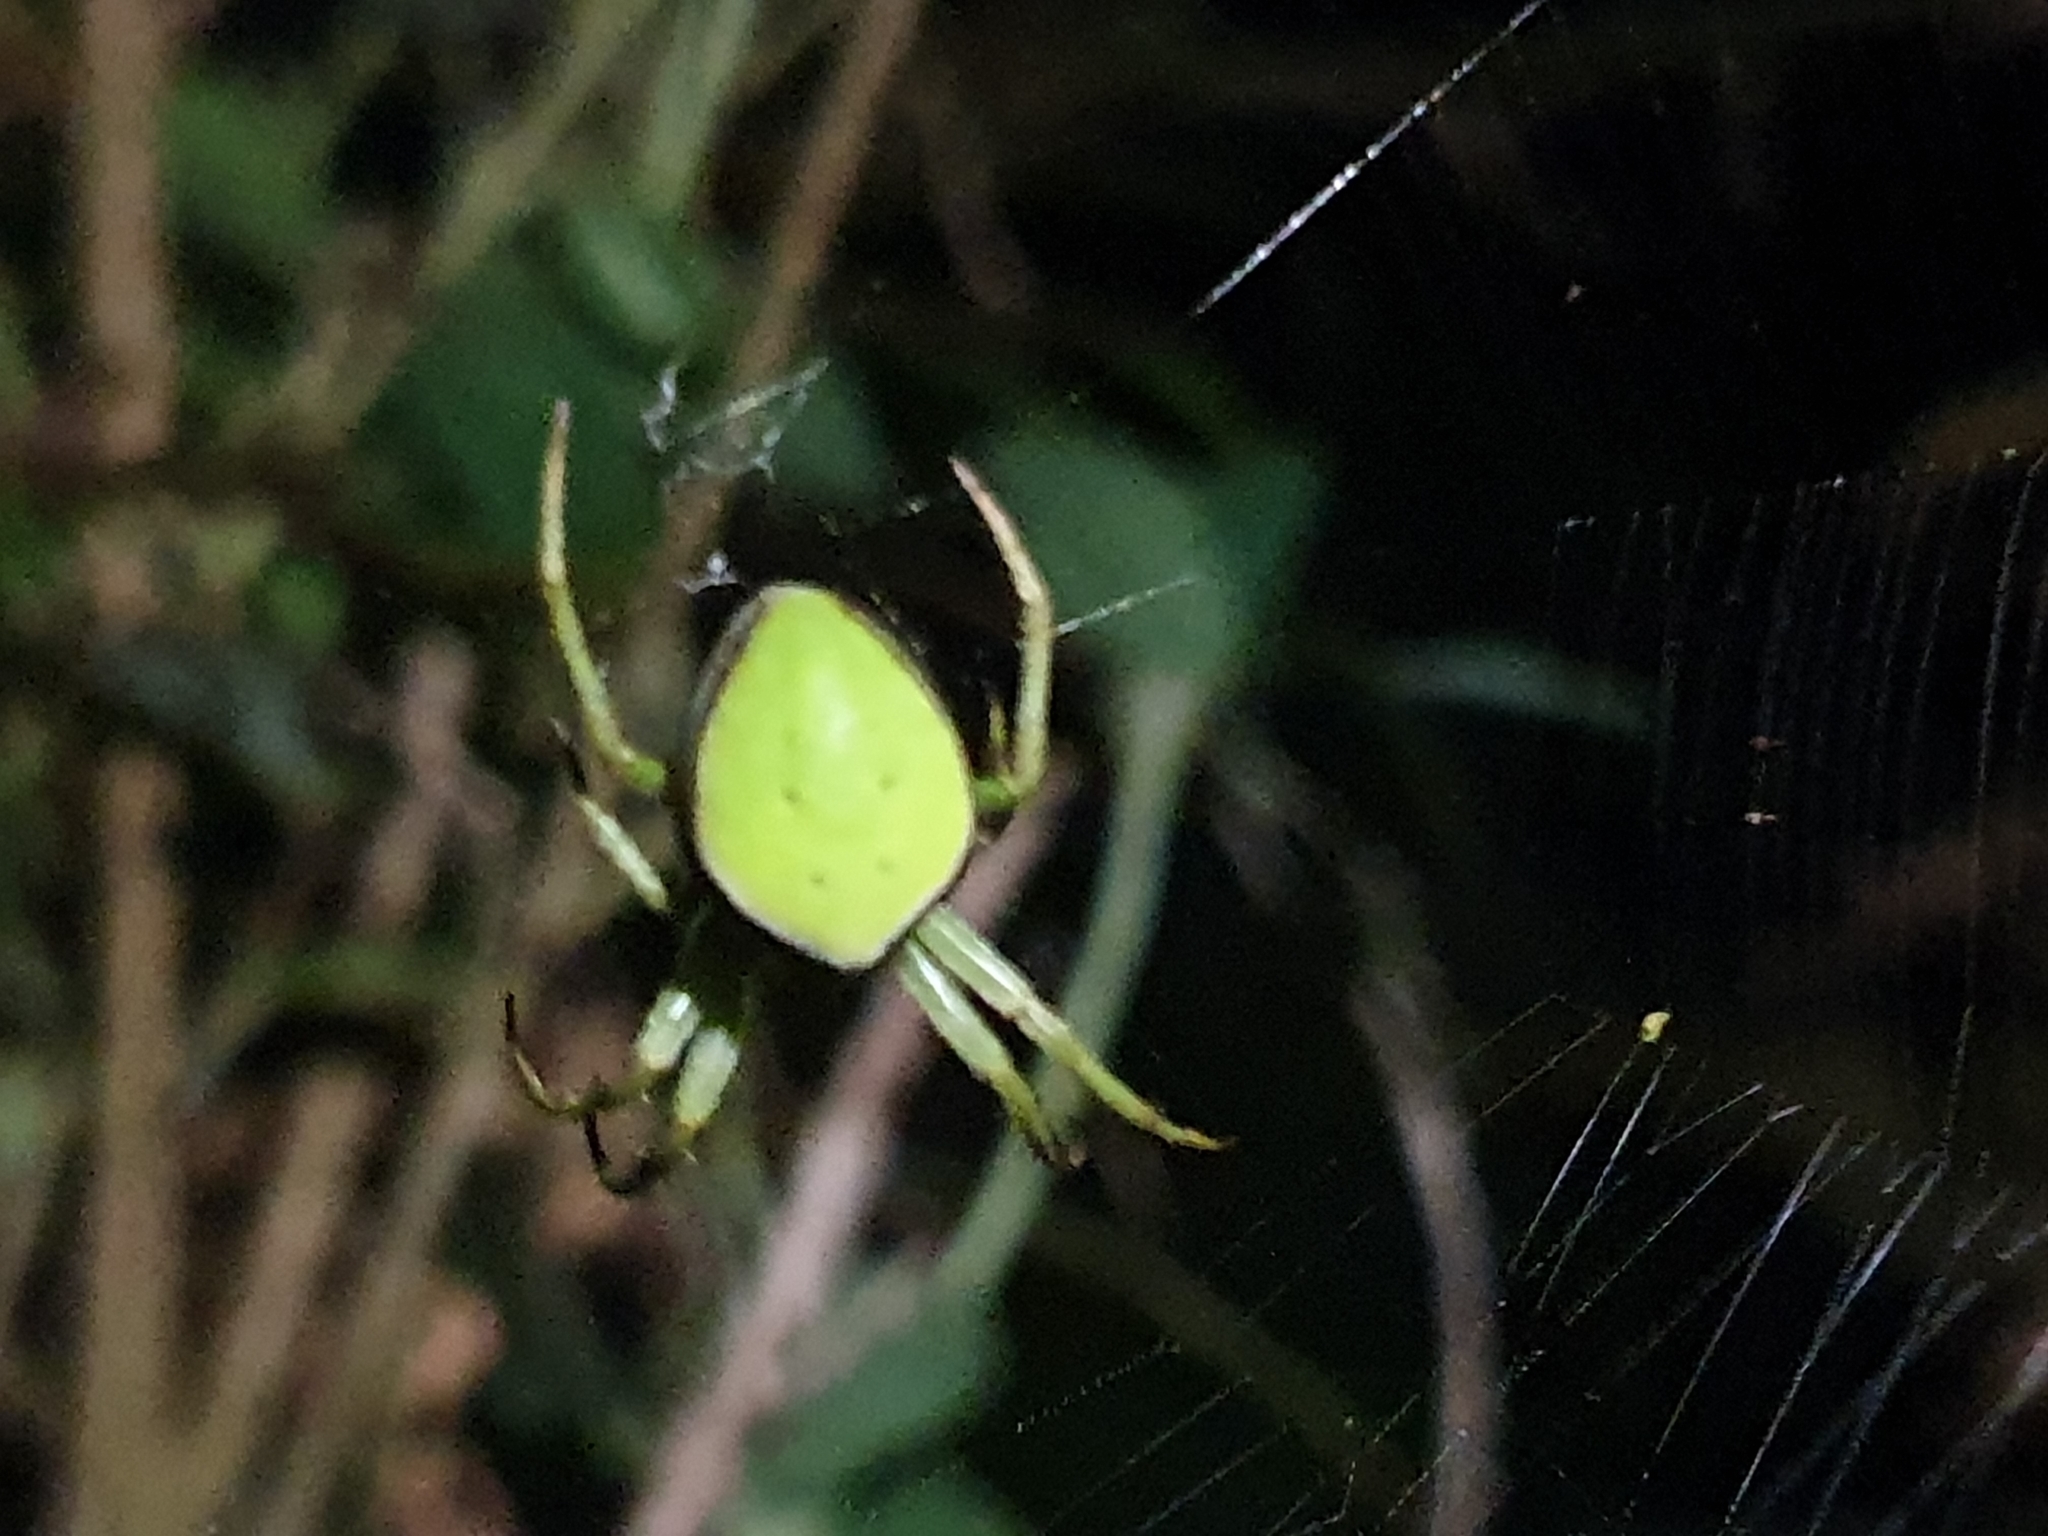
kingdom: Animalia
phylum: Arthropoda
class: Arachnida
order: Araneae
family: Araneidae
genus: Colaranea
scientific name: Colaranea viriditas
